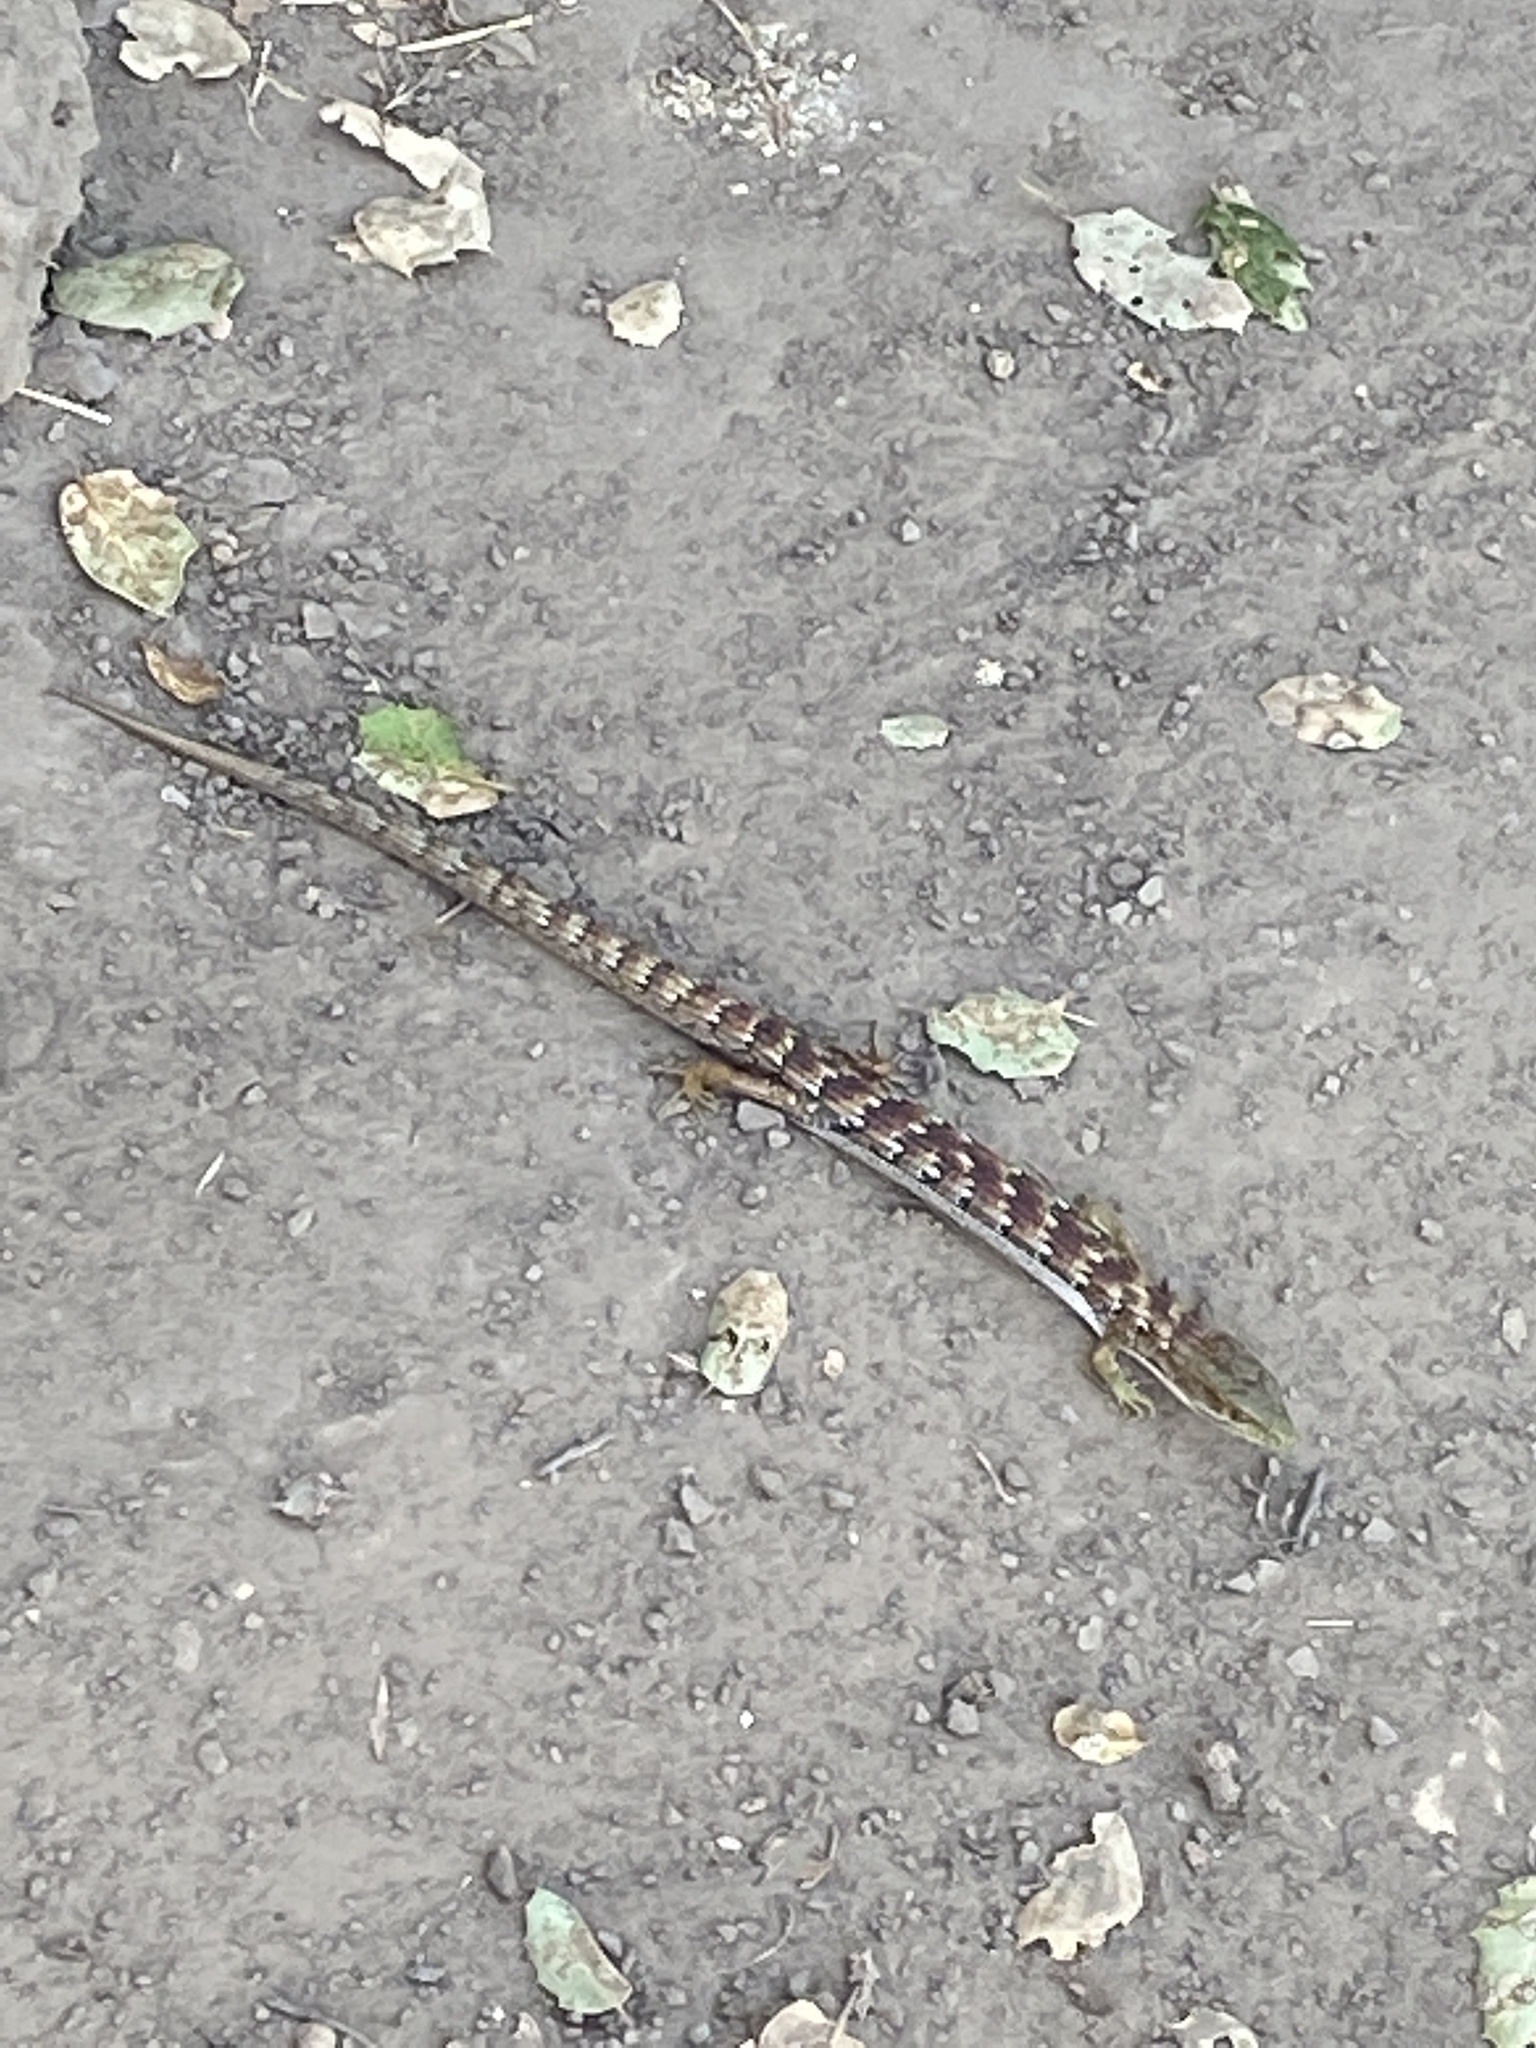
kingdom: Animalia
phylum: Chordata
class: Squamata
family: Anguidae
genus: Elgaria
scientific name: Elgaria multicarinata
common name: Southern alligator lizard
